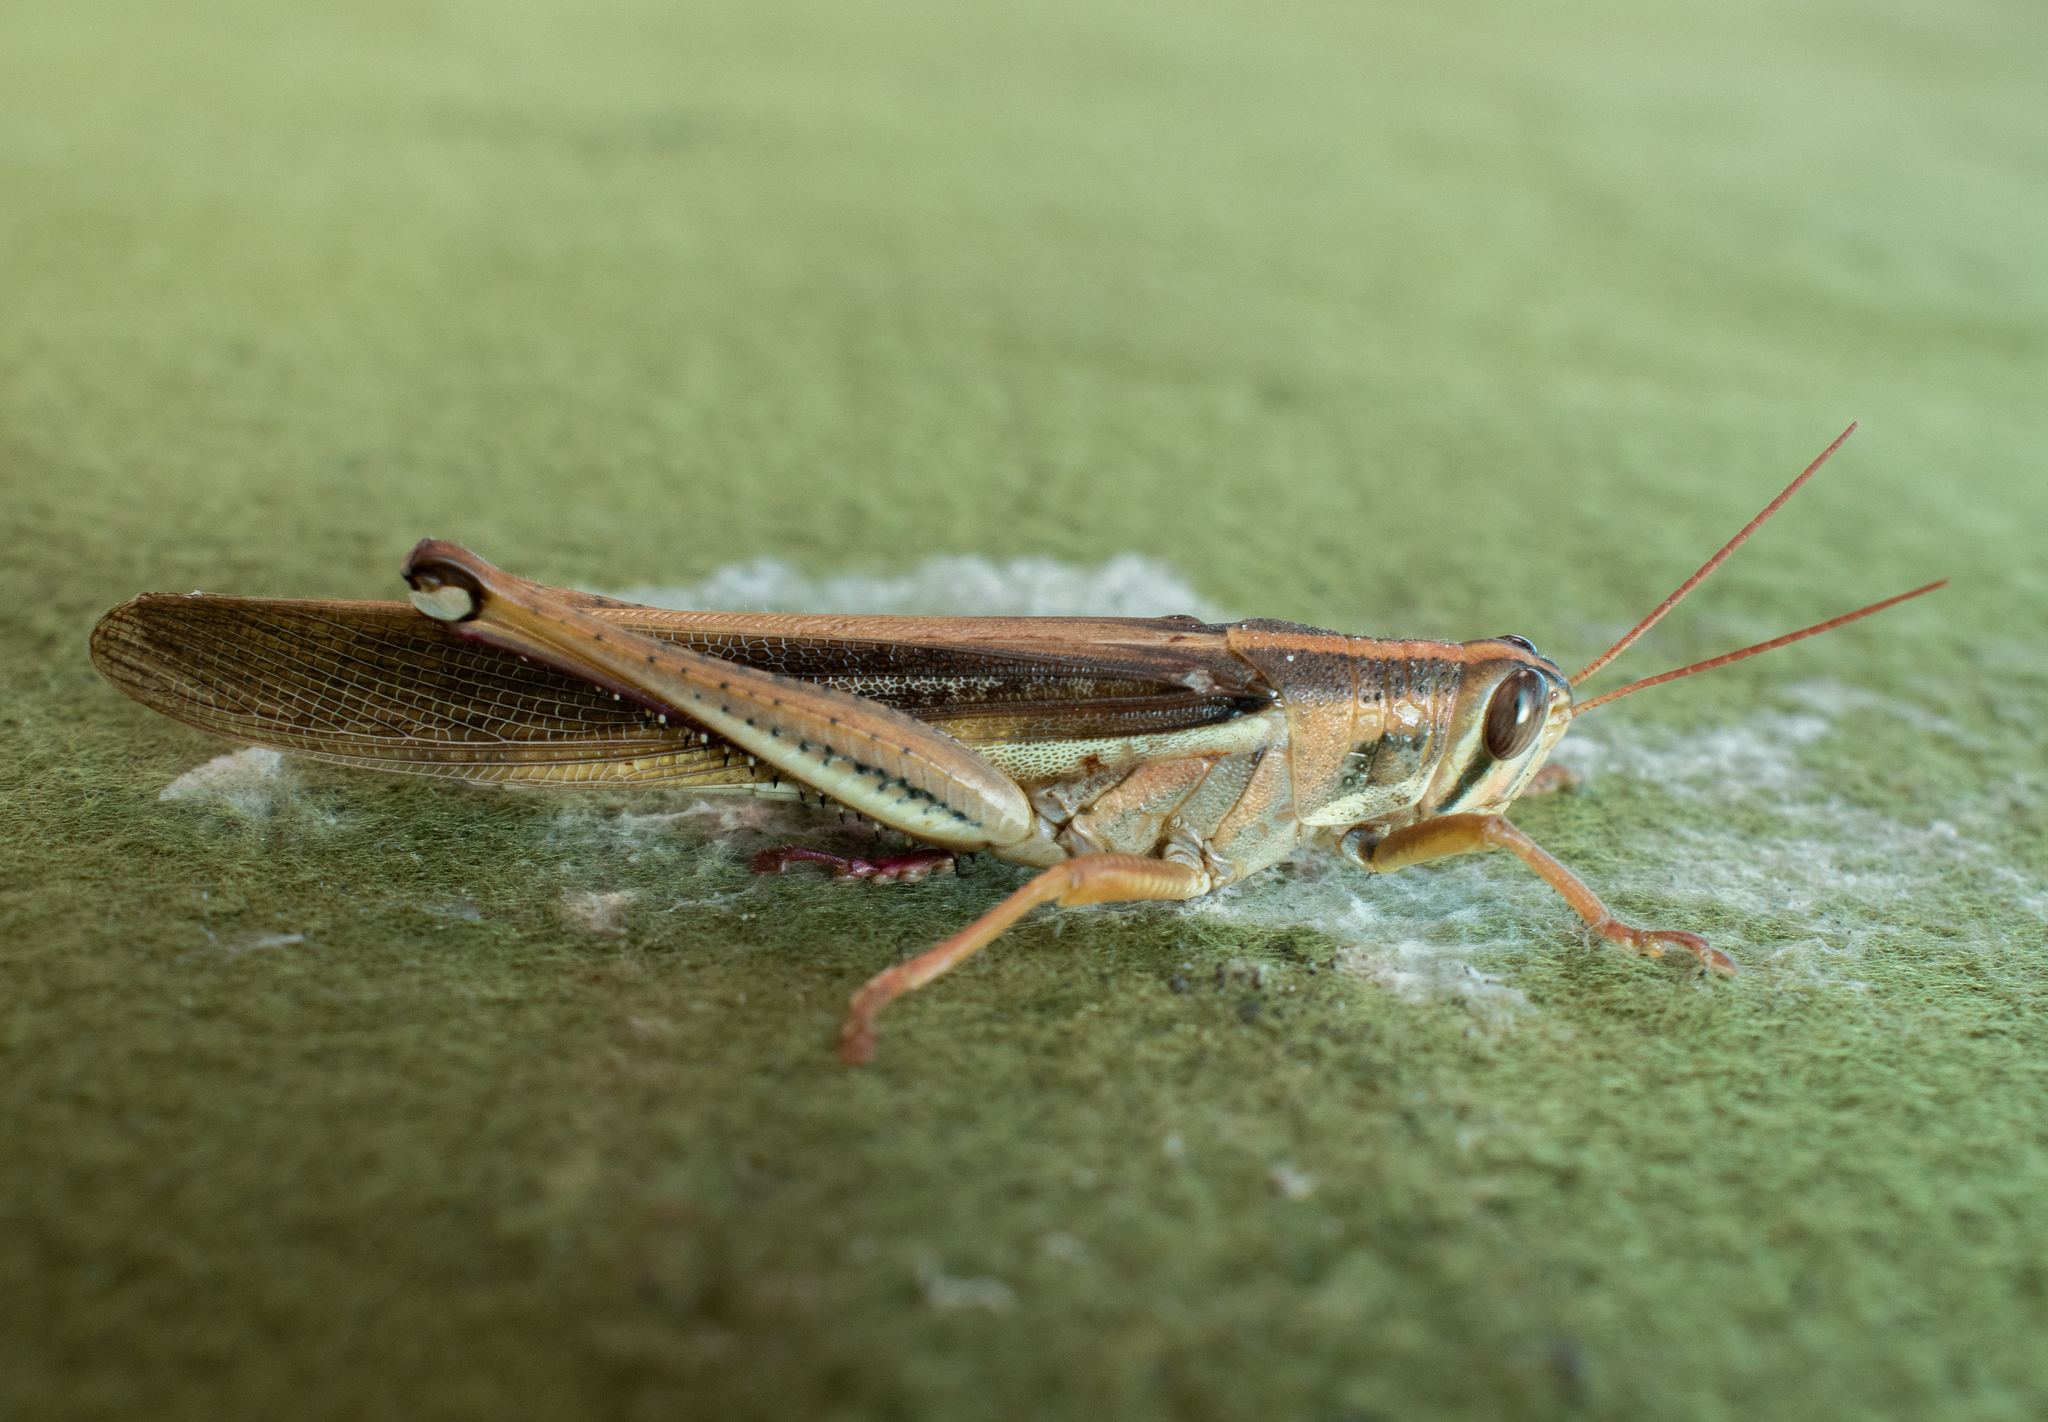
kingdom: Animalia
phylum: Arthropoda
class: Insecta
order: Orthoptera
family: Acrididae
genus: Schistocerca
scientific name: Schistocerca pallens
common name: Bird grasshopper
